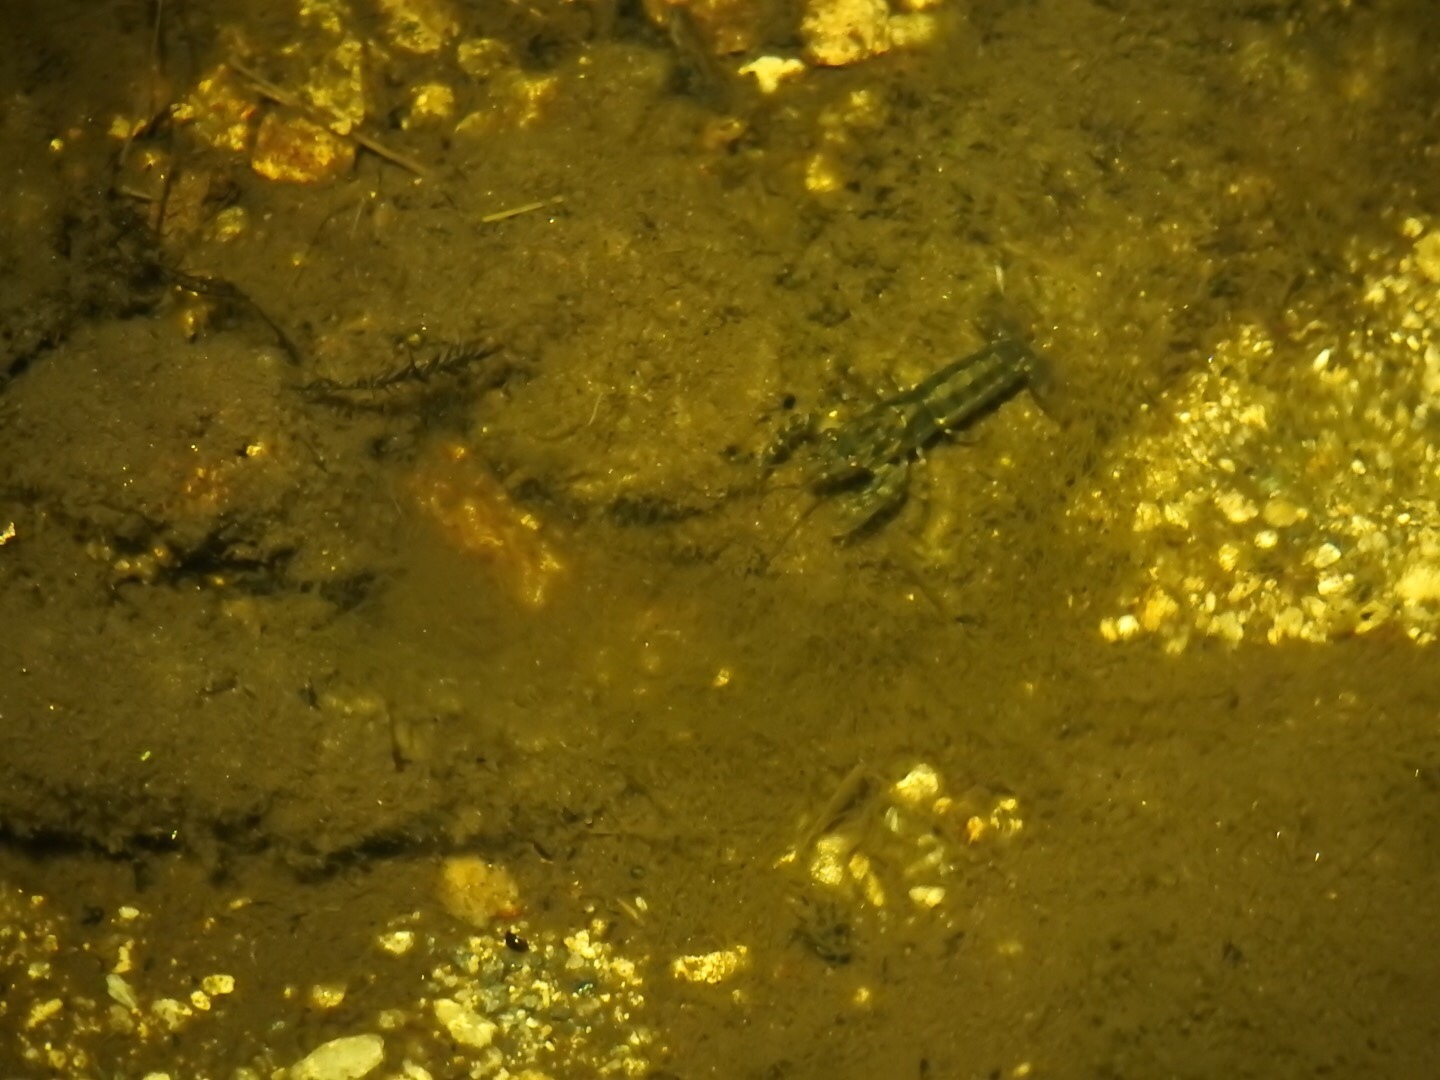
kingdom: Animalia
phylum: Arthropoda
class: Malacostraca
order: Decapoda
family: Parastacidae
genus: Paranephrops
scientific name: Paranephrops zealandicus
